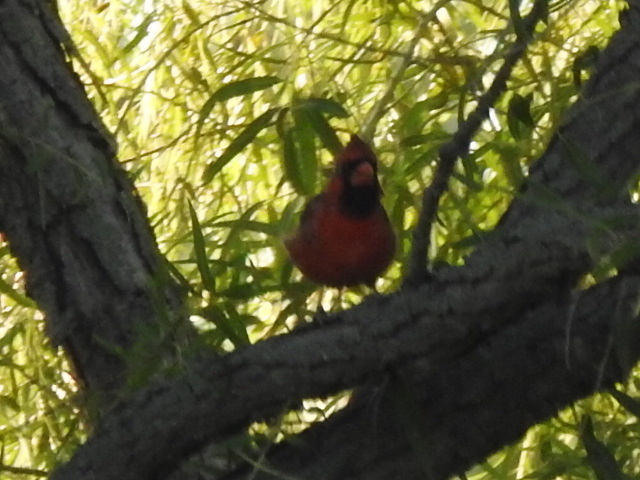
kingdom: Animalia
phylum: Chordata
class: Aves
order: Passeriformes
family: Cardinalidae
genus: Cardinalis
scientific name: Cardinalis cardinalis
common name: Northern cardinal
